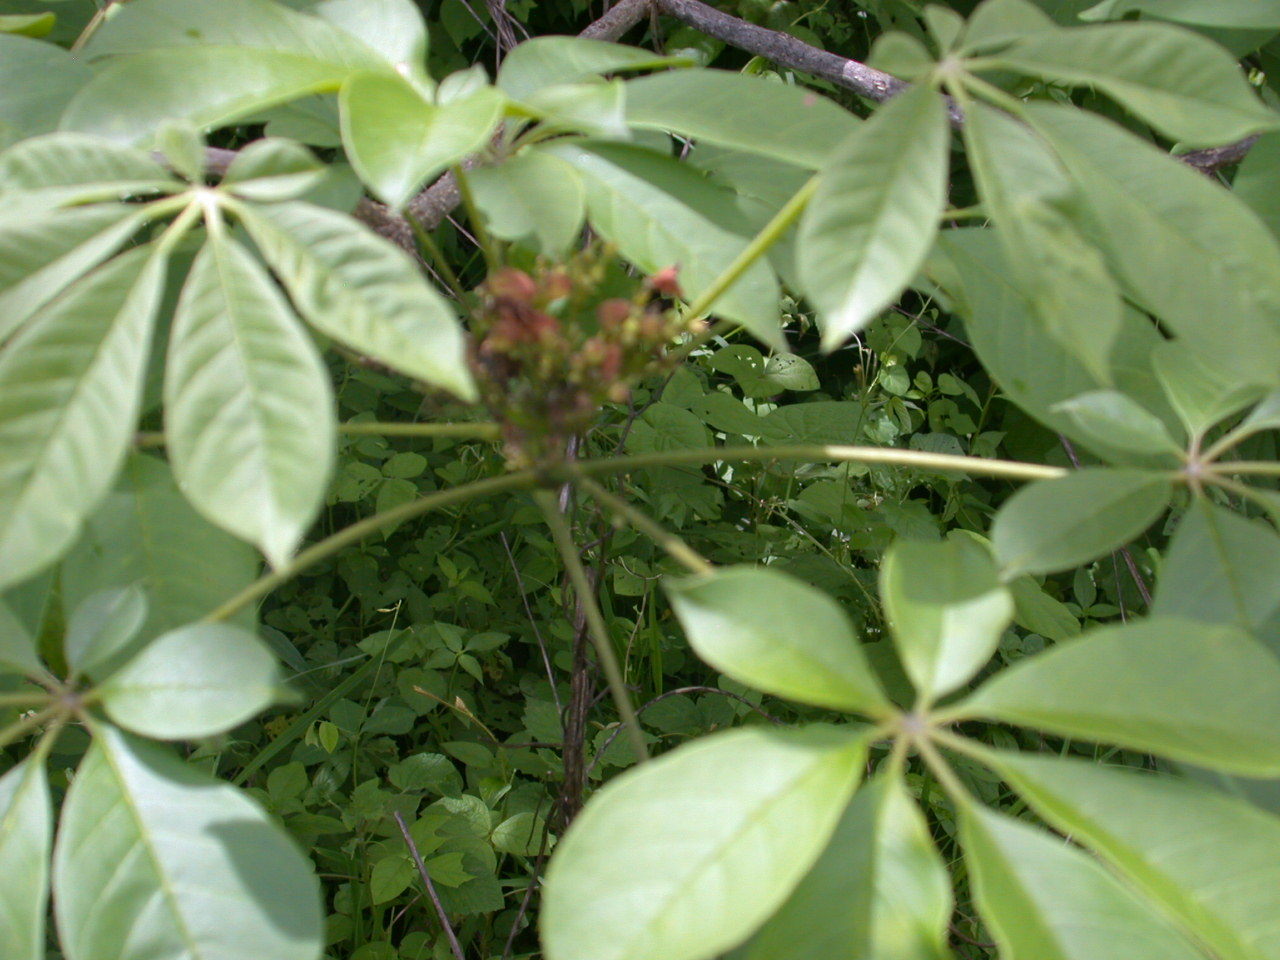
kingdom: Plantae
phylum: Tracheophyta
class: Magnoliopsida
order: Lamiales
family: Bignoniaceae
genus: Godmania
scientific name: Godmania aesculifolia
